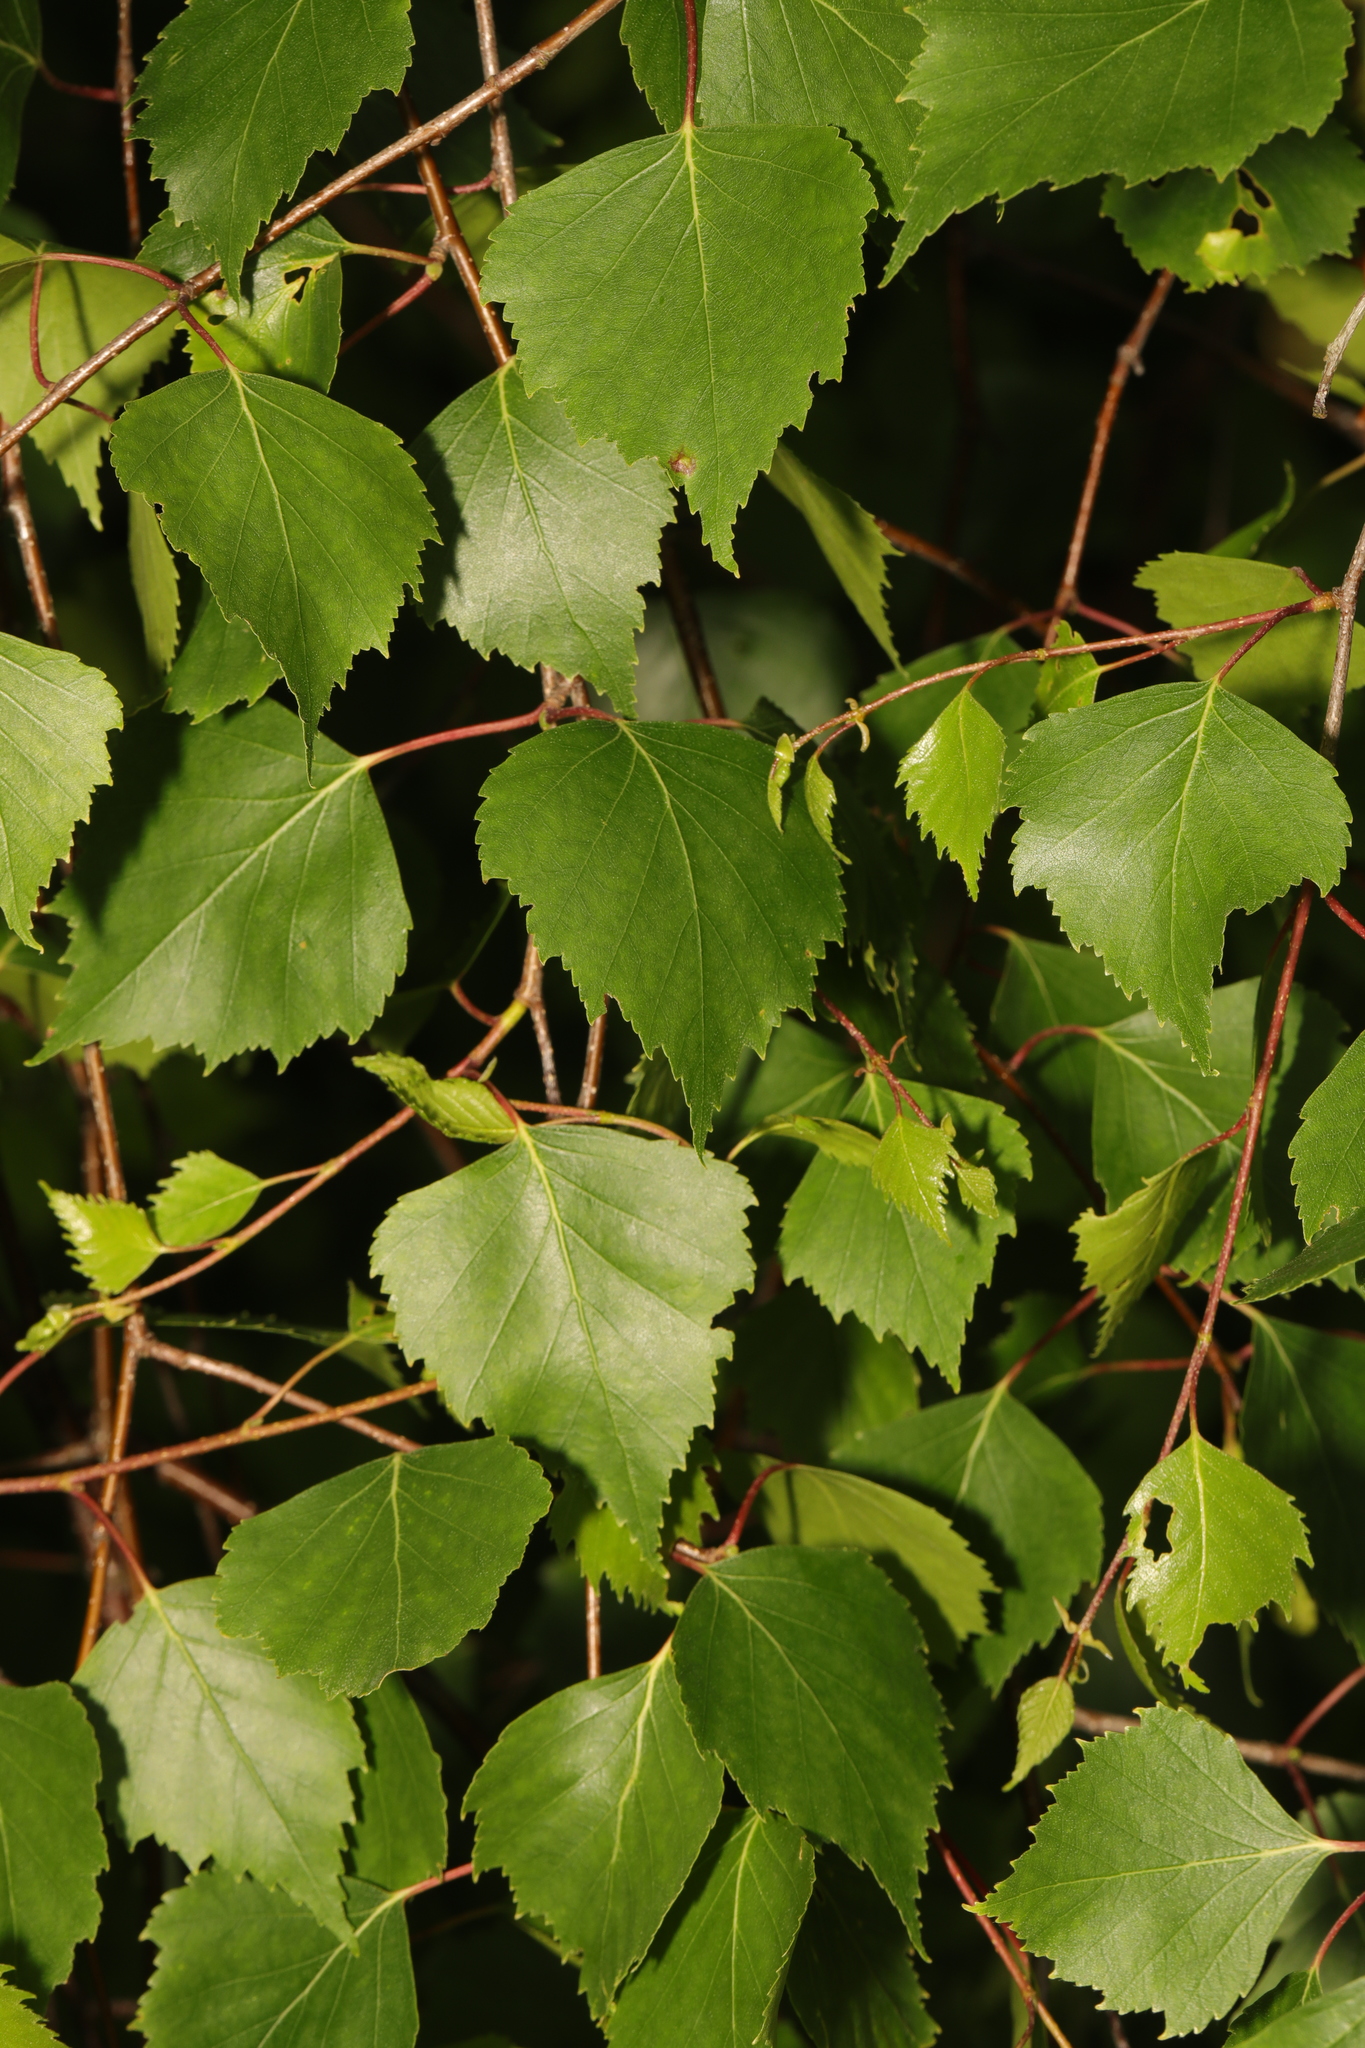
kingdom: Plantae
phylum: Tracheophyta
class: Magnoliopsida
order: Fagales
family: Betulaceae
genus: Betula
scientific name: Betula pendula
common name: Silver birch
